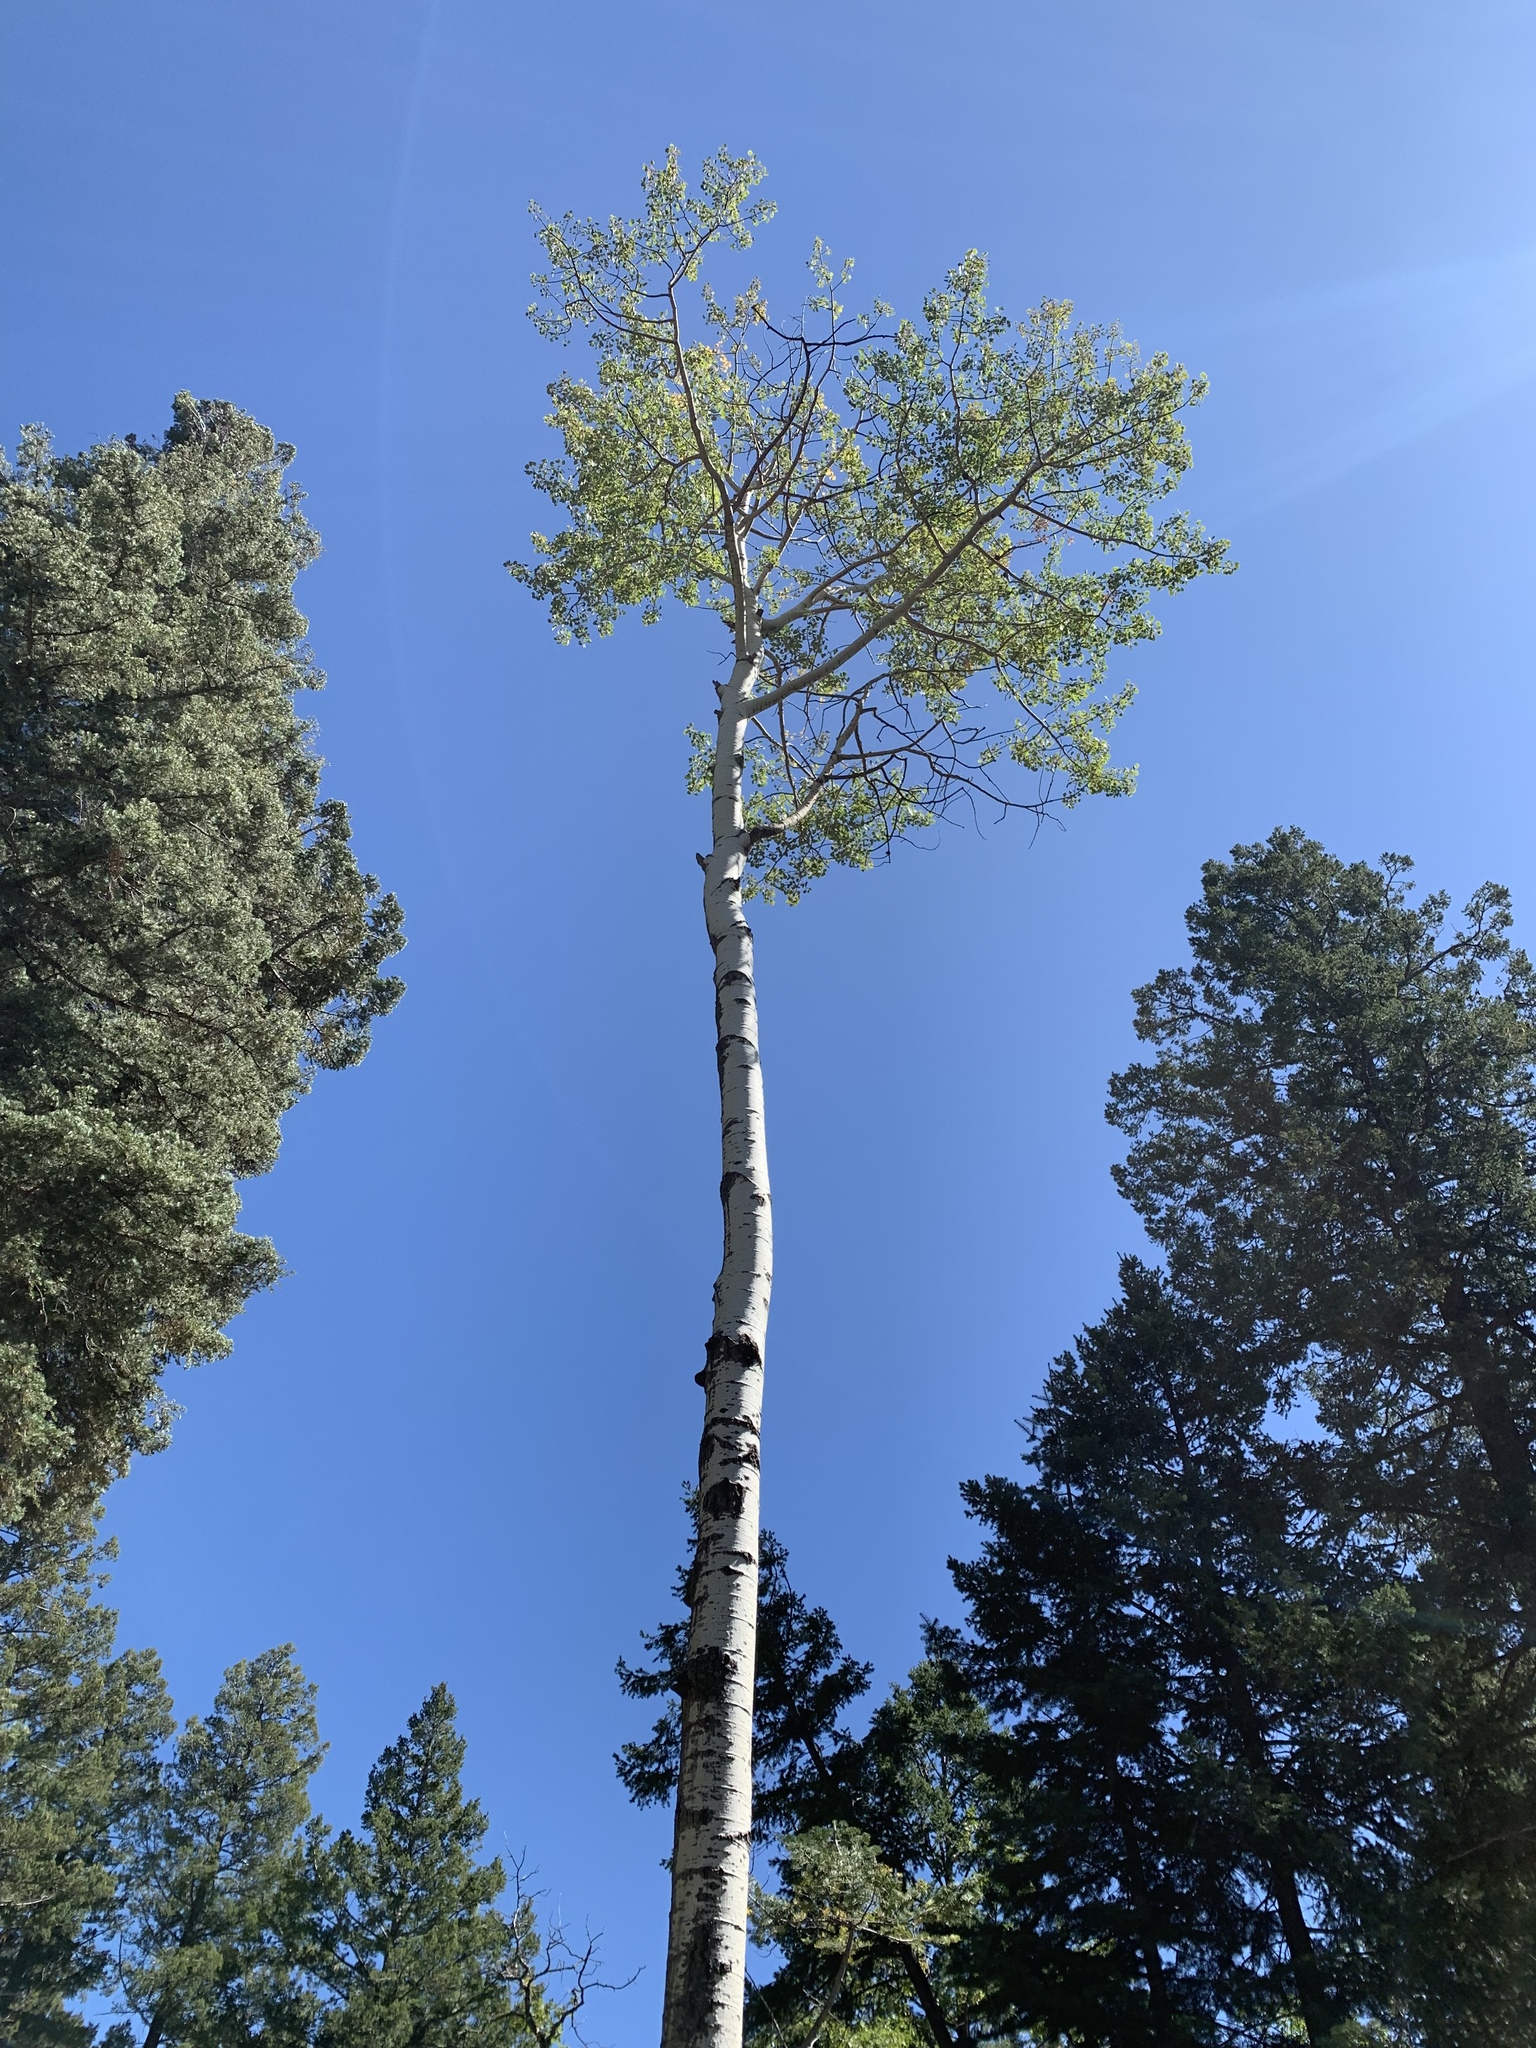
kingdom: Plantae
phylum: Tracheophyta
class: Magnoliopsida
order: Malpighiales
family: Salicaceae
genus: Populus
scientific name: Populus tremuloides
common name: Quaking aspen
